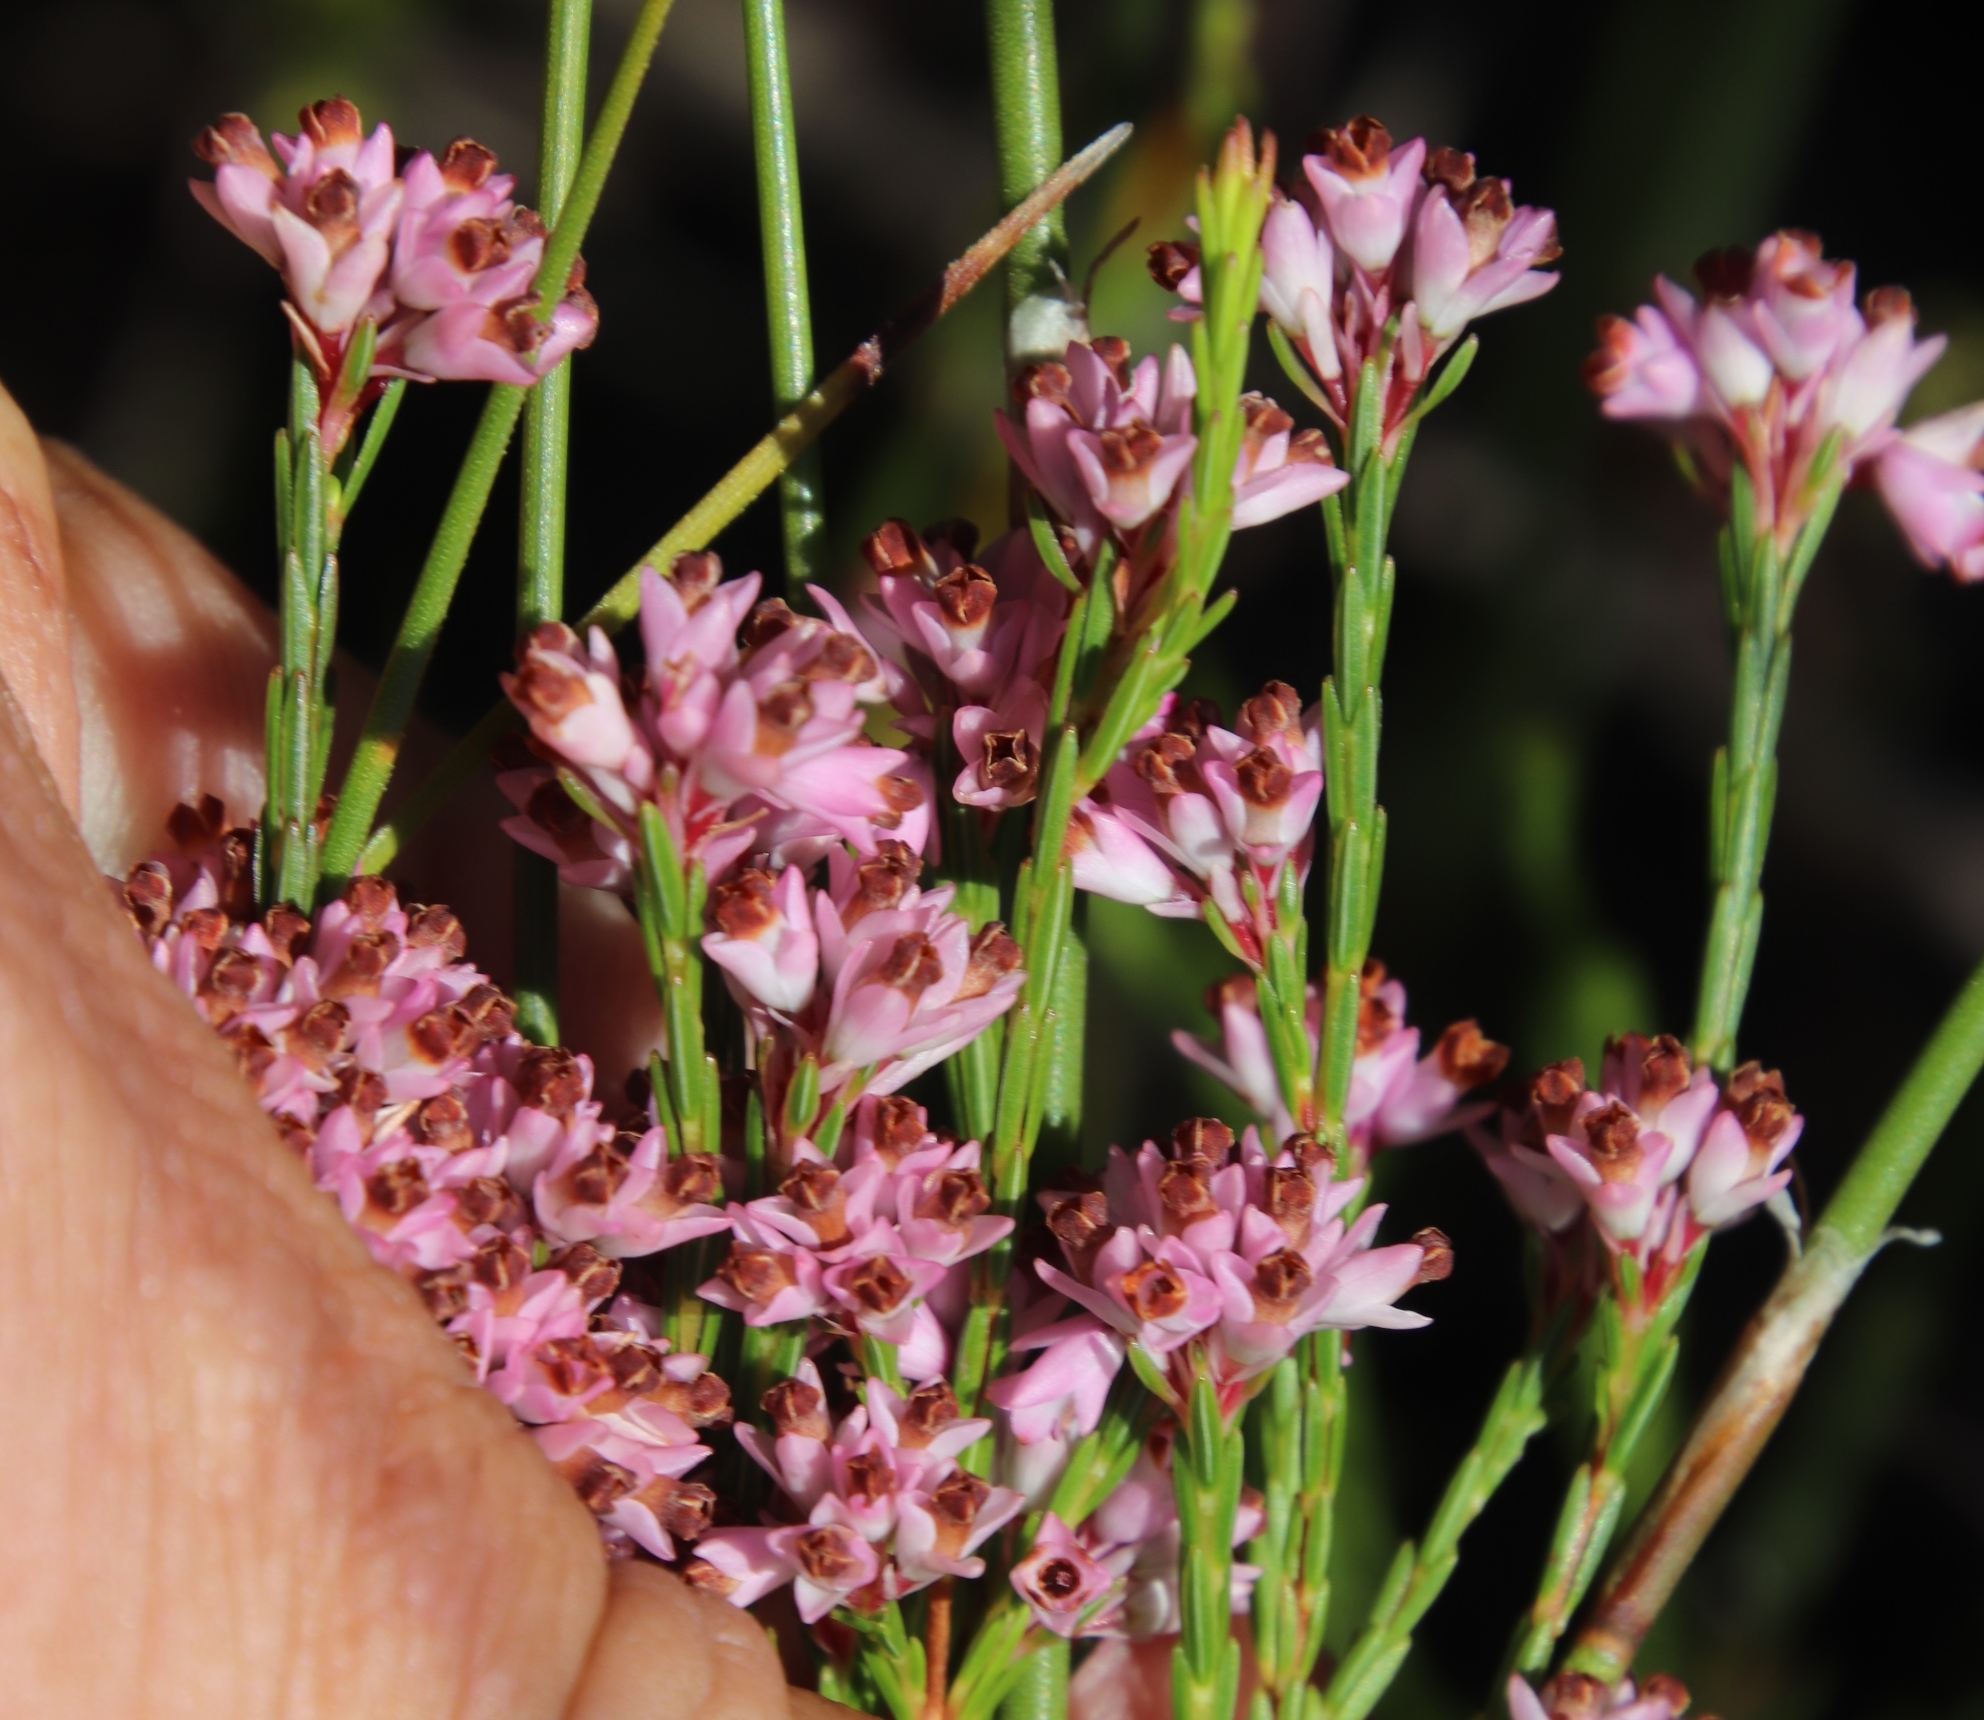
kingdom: Plantae
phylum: Tracheophyta
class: Magnoliopsida
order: Ericales
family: Ericaceae
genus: Erica
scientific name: Erica corifolia
